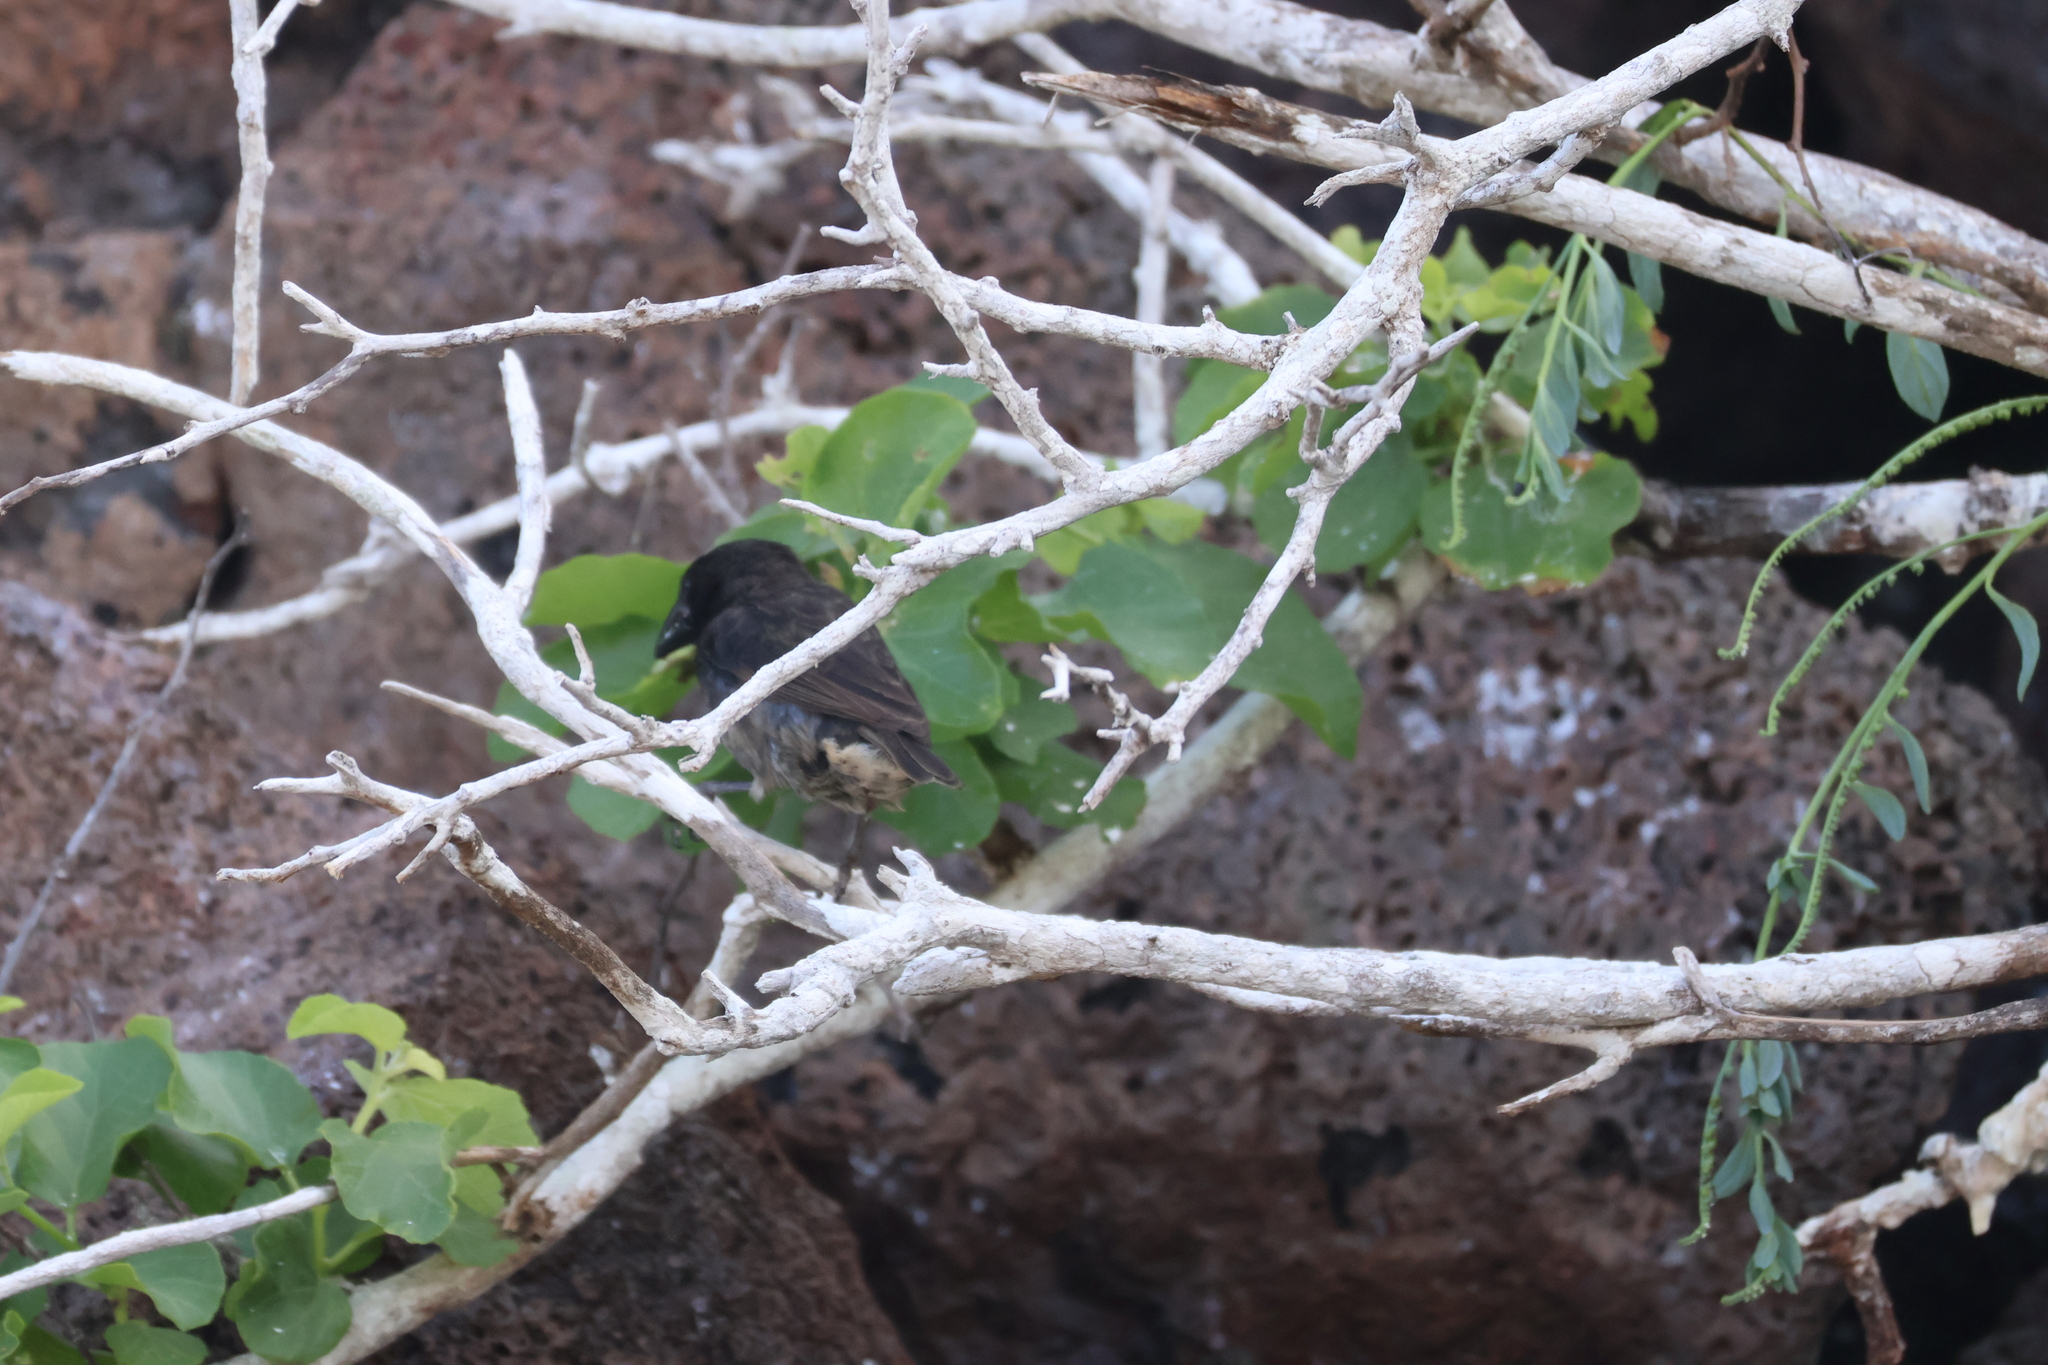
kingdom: Animalia
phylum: Chordata
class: Aves
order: Passeriformes
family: Thraupidae
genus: Geospiza
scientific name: Geospiza propinqua
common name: Genovesa cactus-finch
